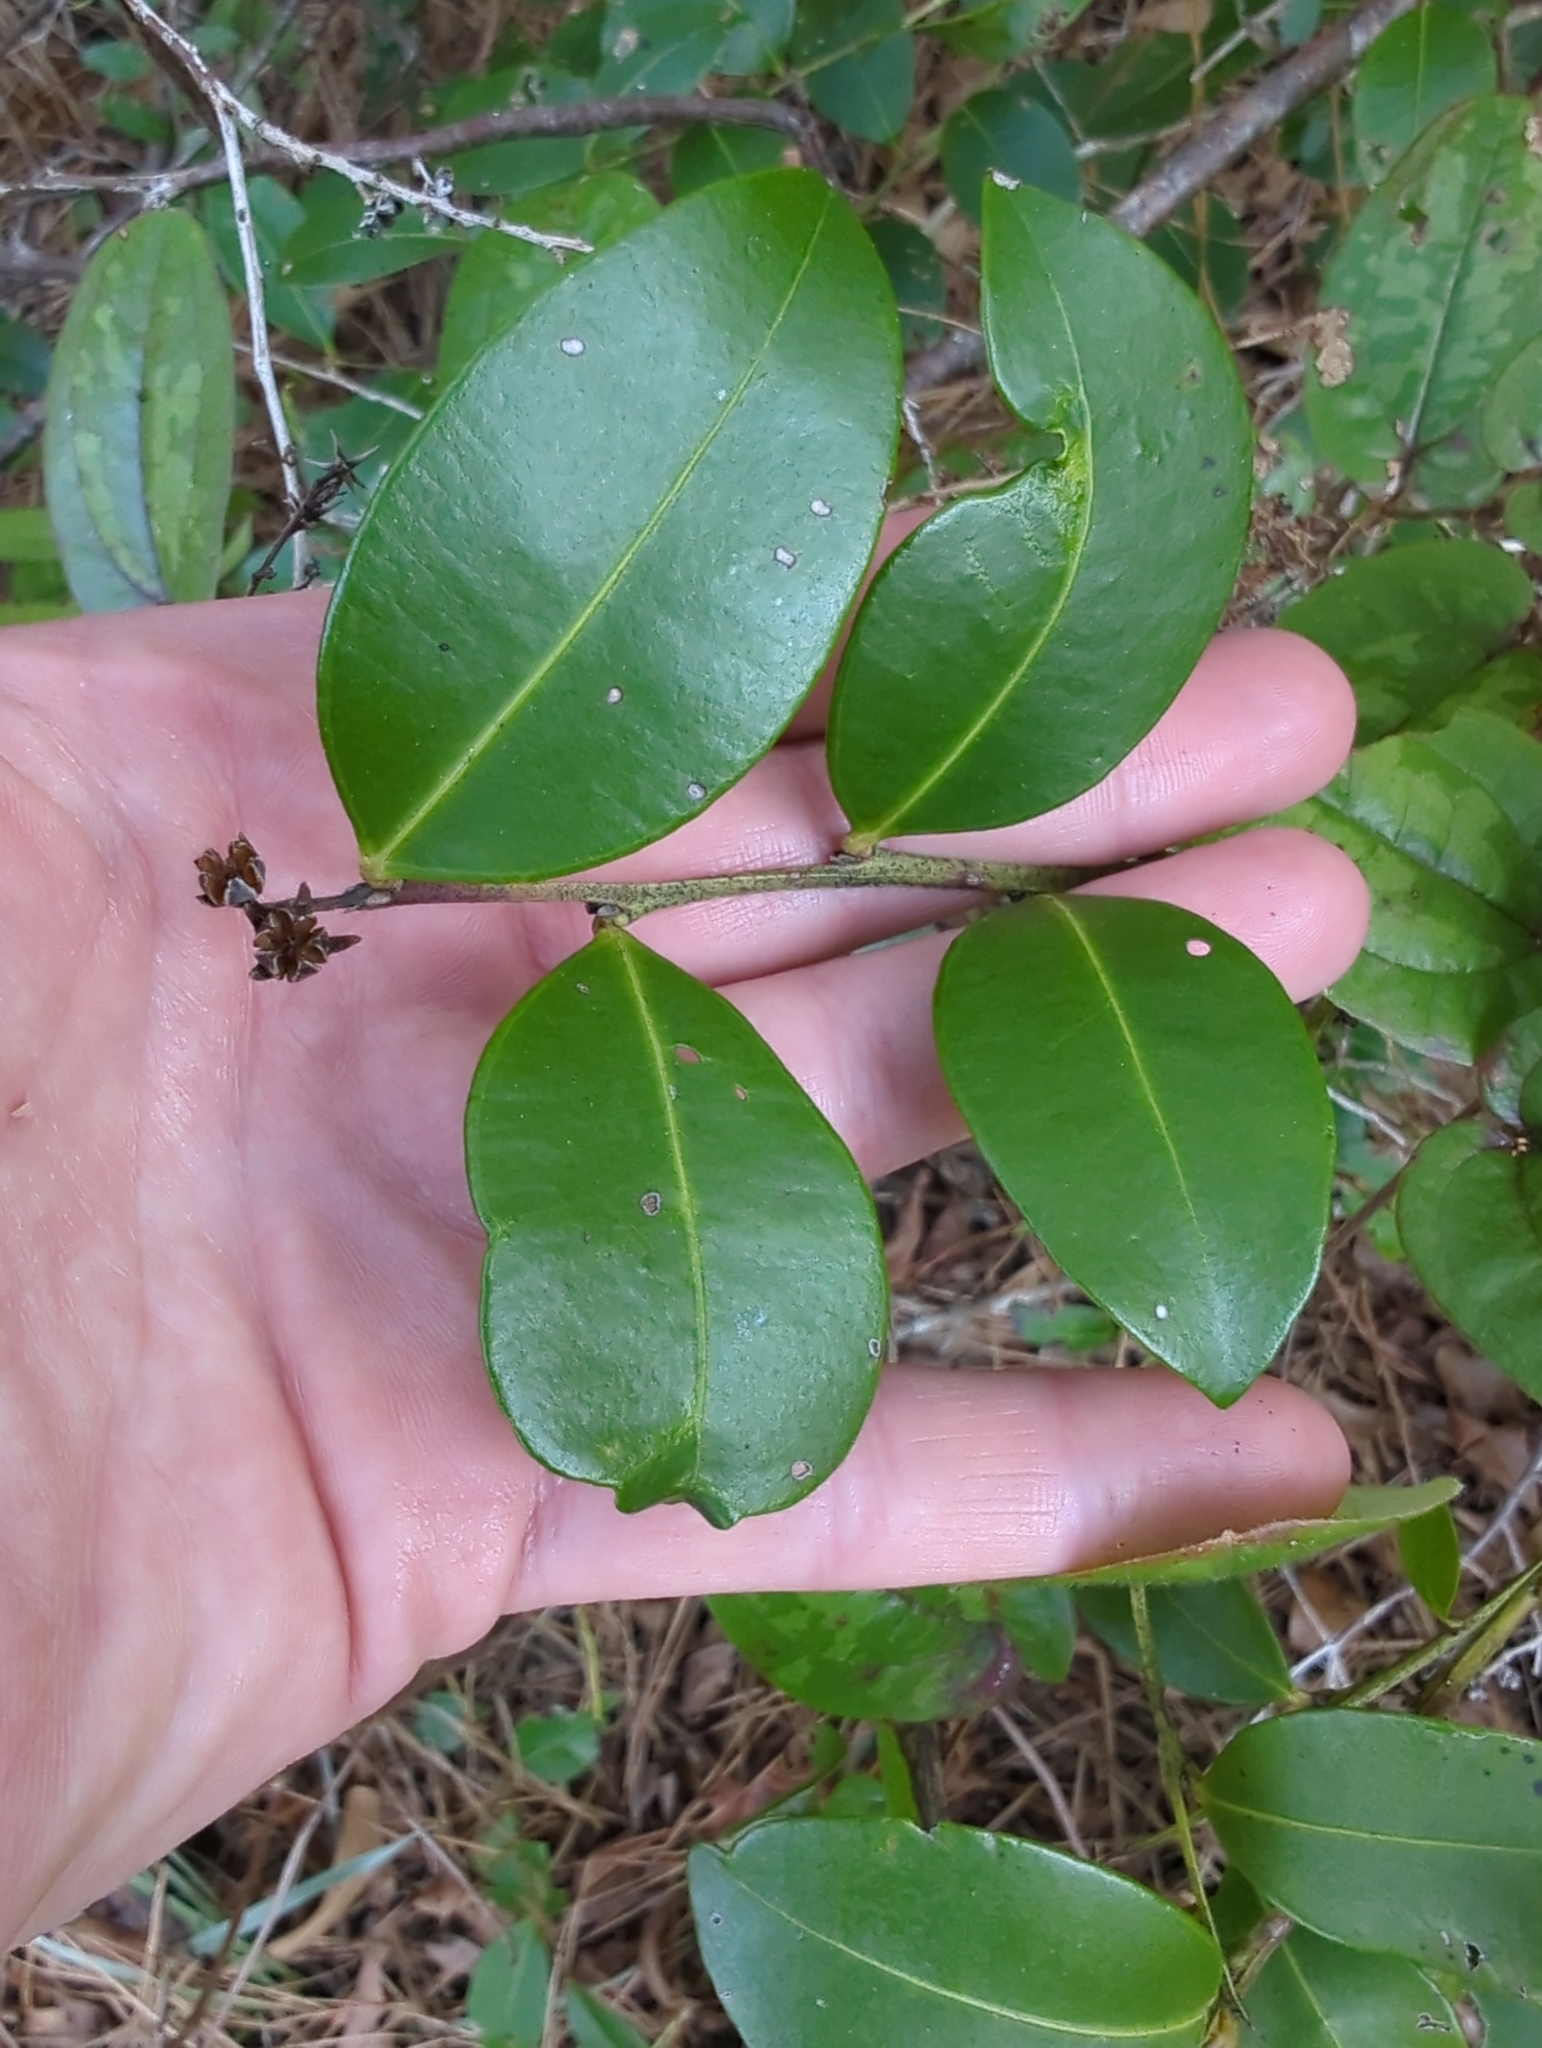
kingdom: Plantae
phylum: Tracheophyta
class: Magnoliopsida
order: Ericales
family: Ericaceae
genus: Lyonia
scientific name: Lyonia lucida
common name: Fetterbush
